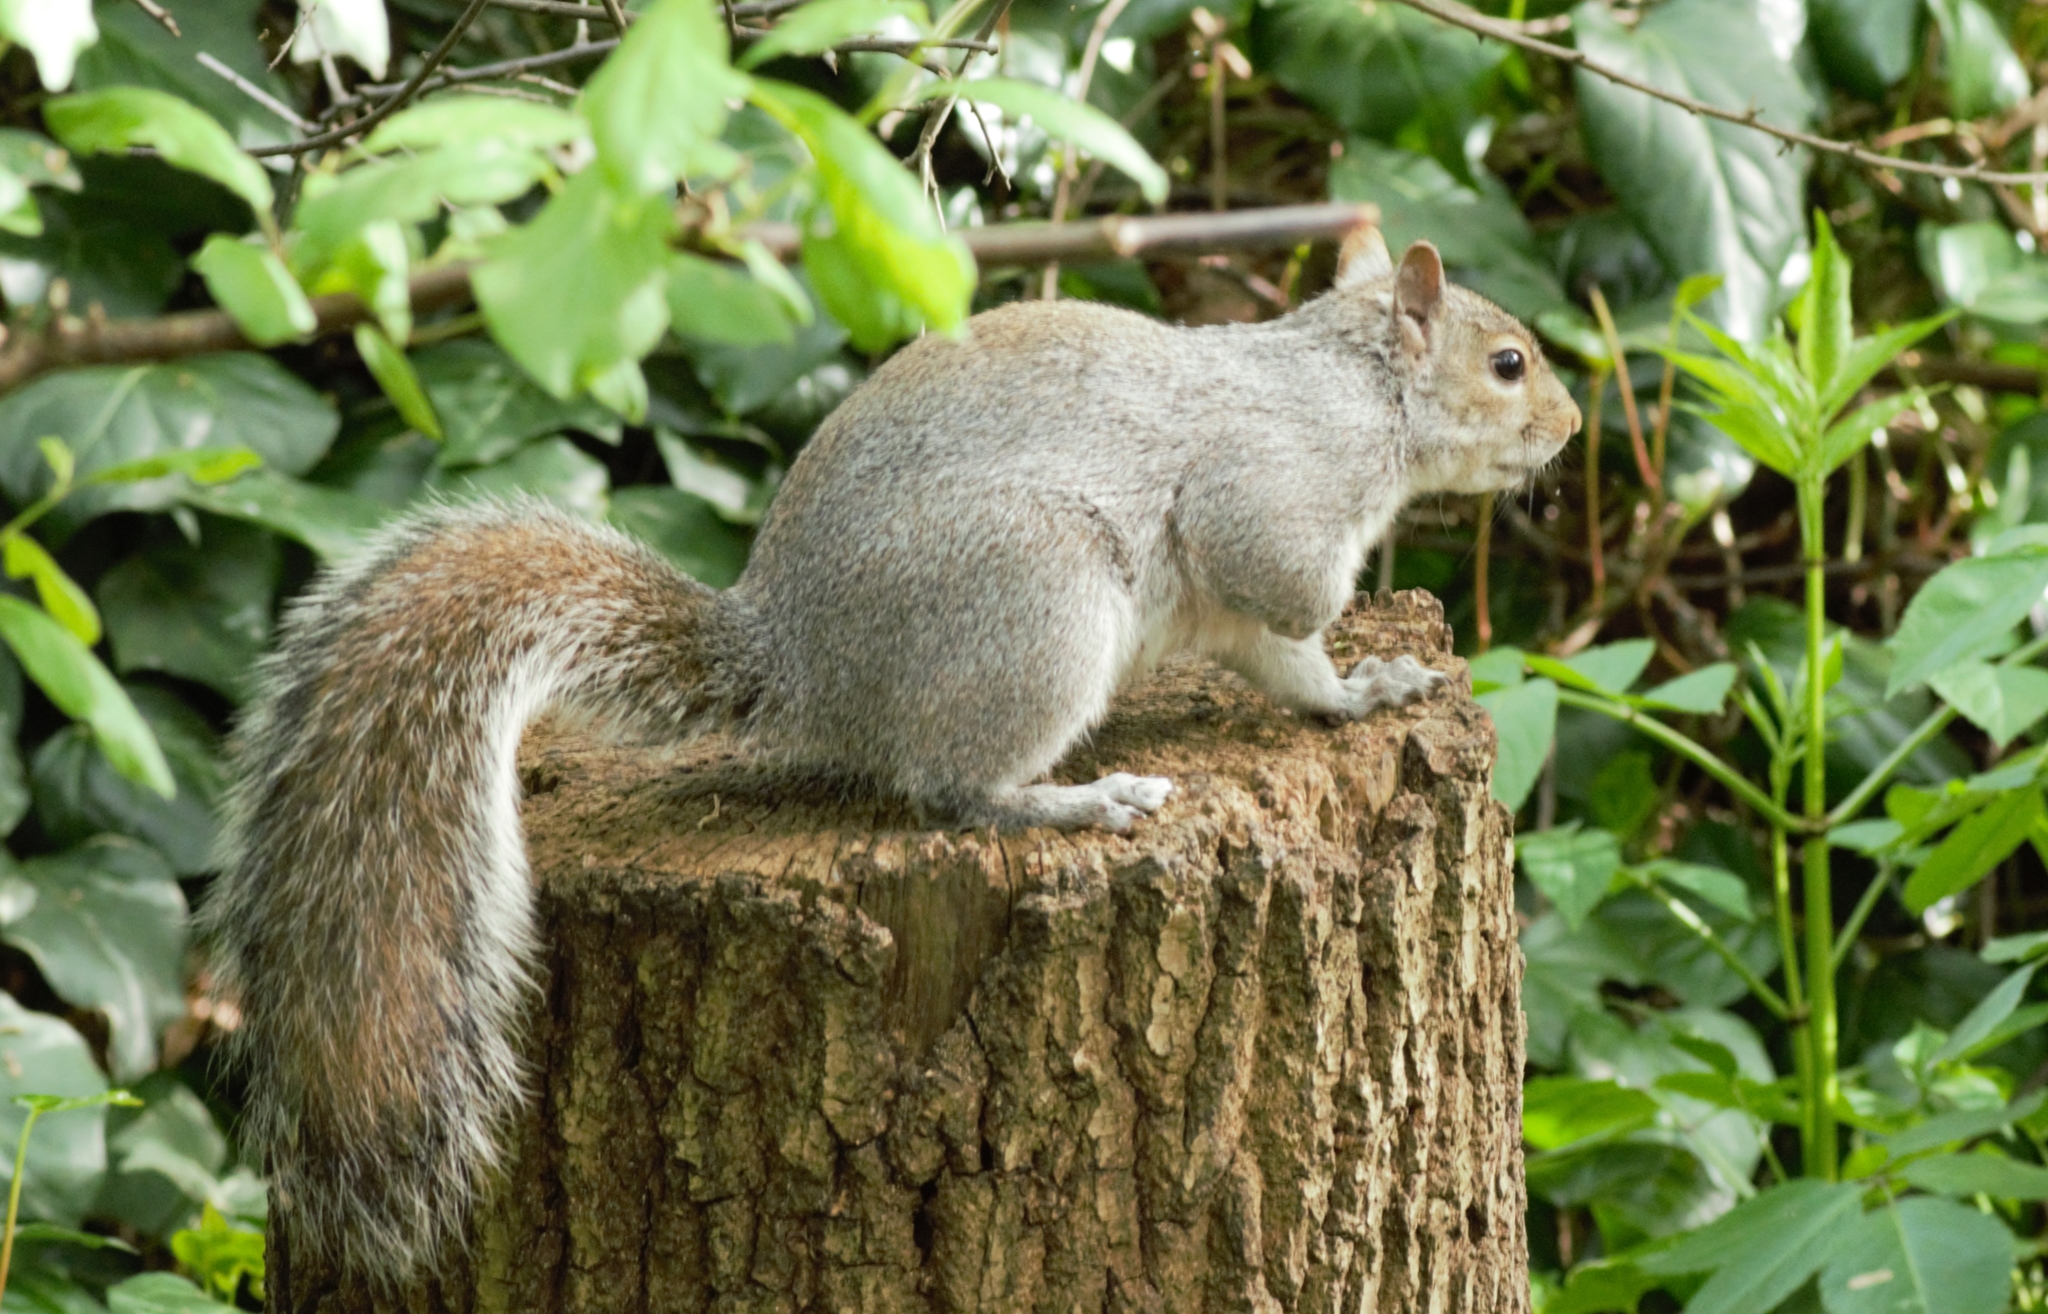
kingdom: Animalia
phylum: Chordata
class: Mammalia
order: Rodentia
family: Sciuridae
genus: Sciurus
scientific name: Sciurus carolinensis
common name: Eastern gray squirrel
